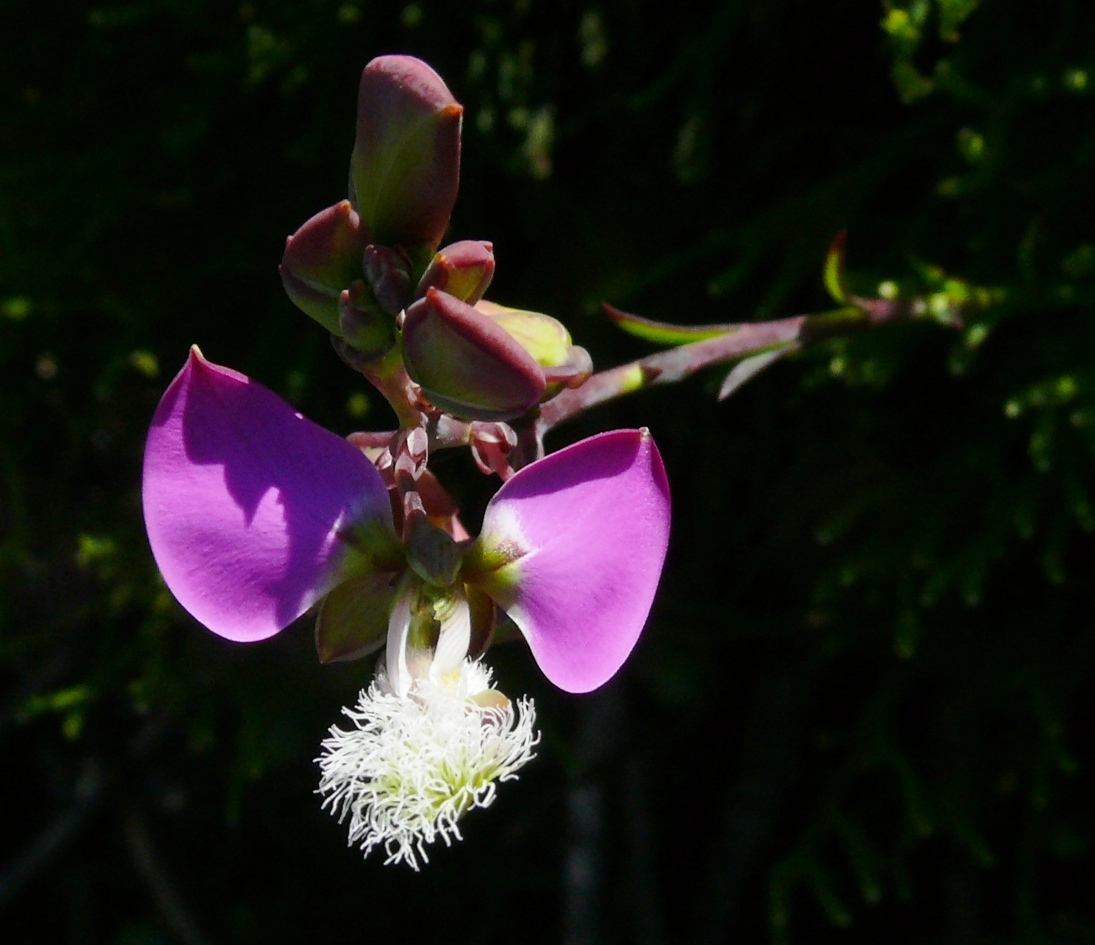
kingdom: Plantae
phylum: Tracheophyta
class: Magnoliopsida
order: Fabales
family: Polygalaceae
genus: Polygala
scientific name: Polygala bracteolata
